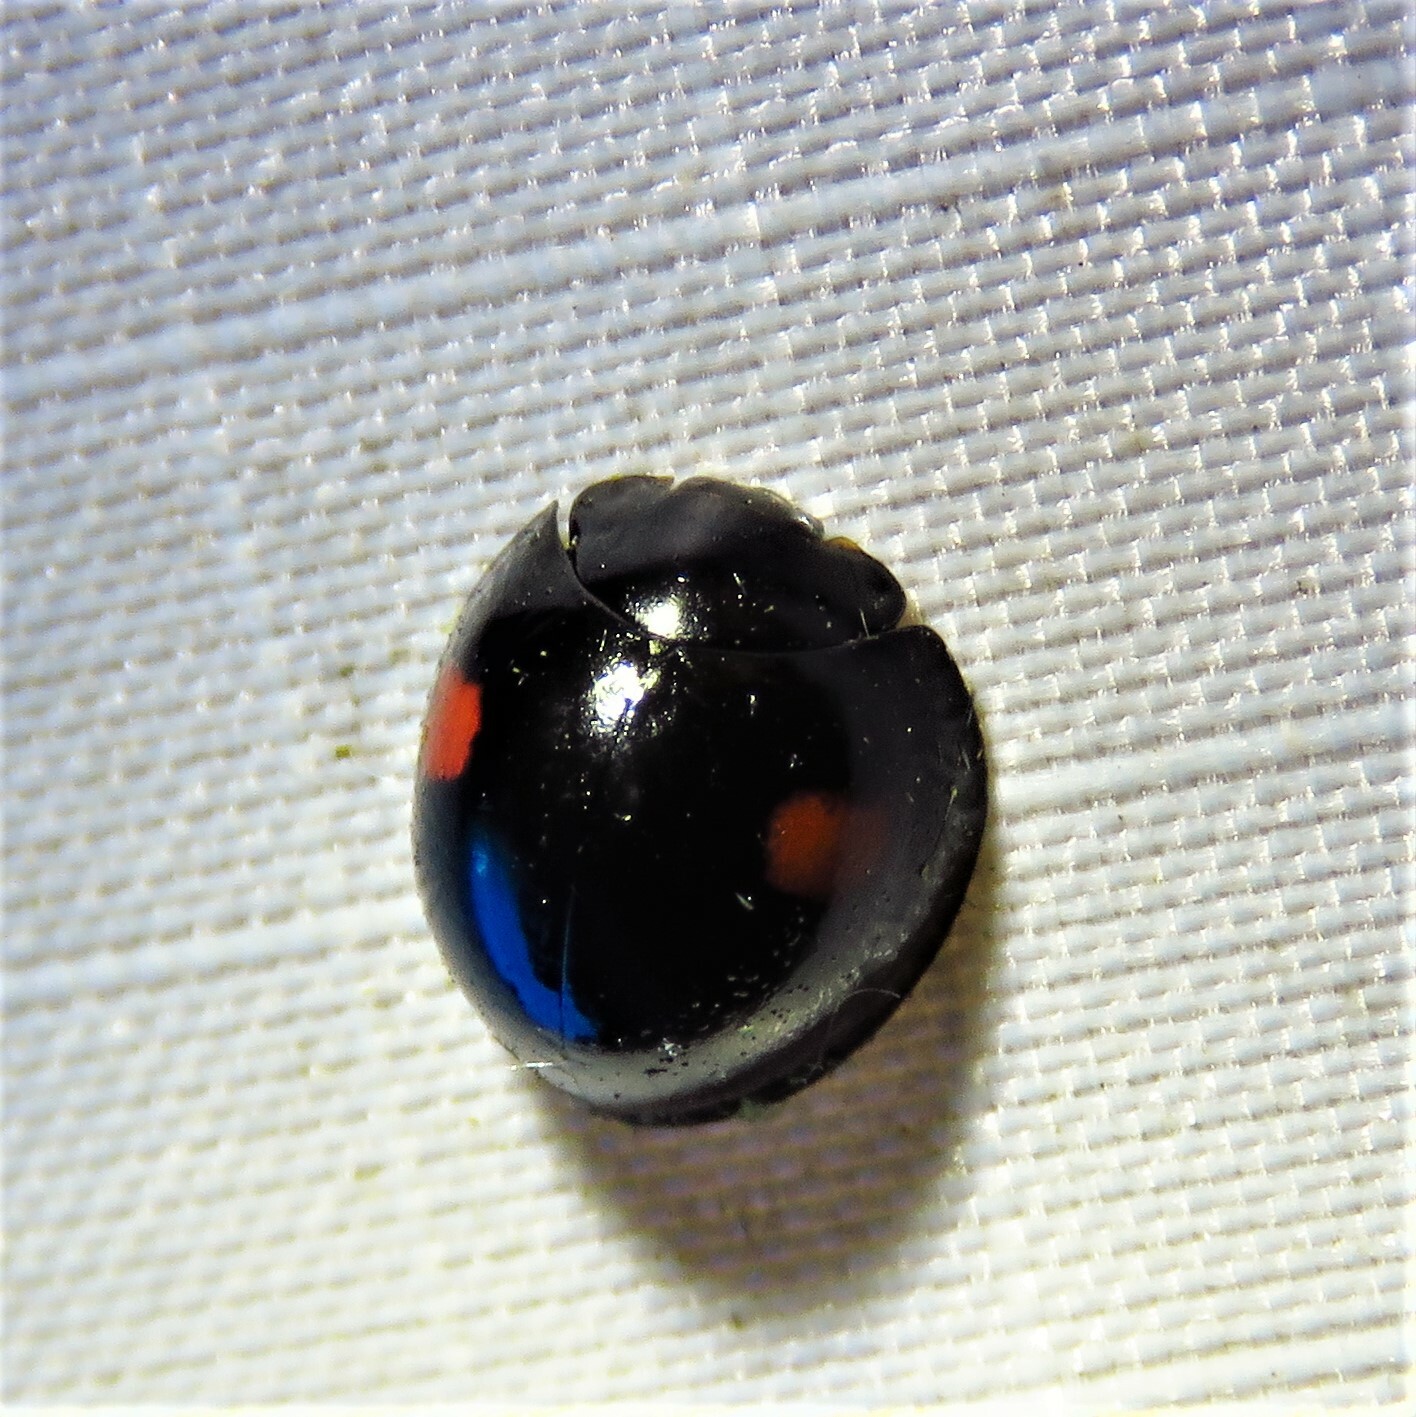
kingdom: Animalia
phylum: Arthropoda
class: Insecta
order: Coleoptera
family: Coccinellidae
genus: Chilocorus
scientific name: Chilocorus stigma
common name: Twicestabbed lady beetle
